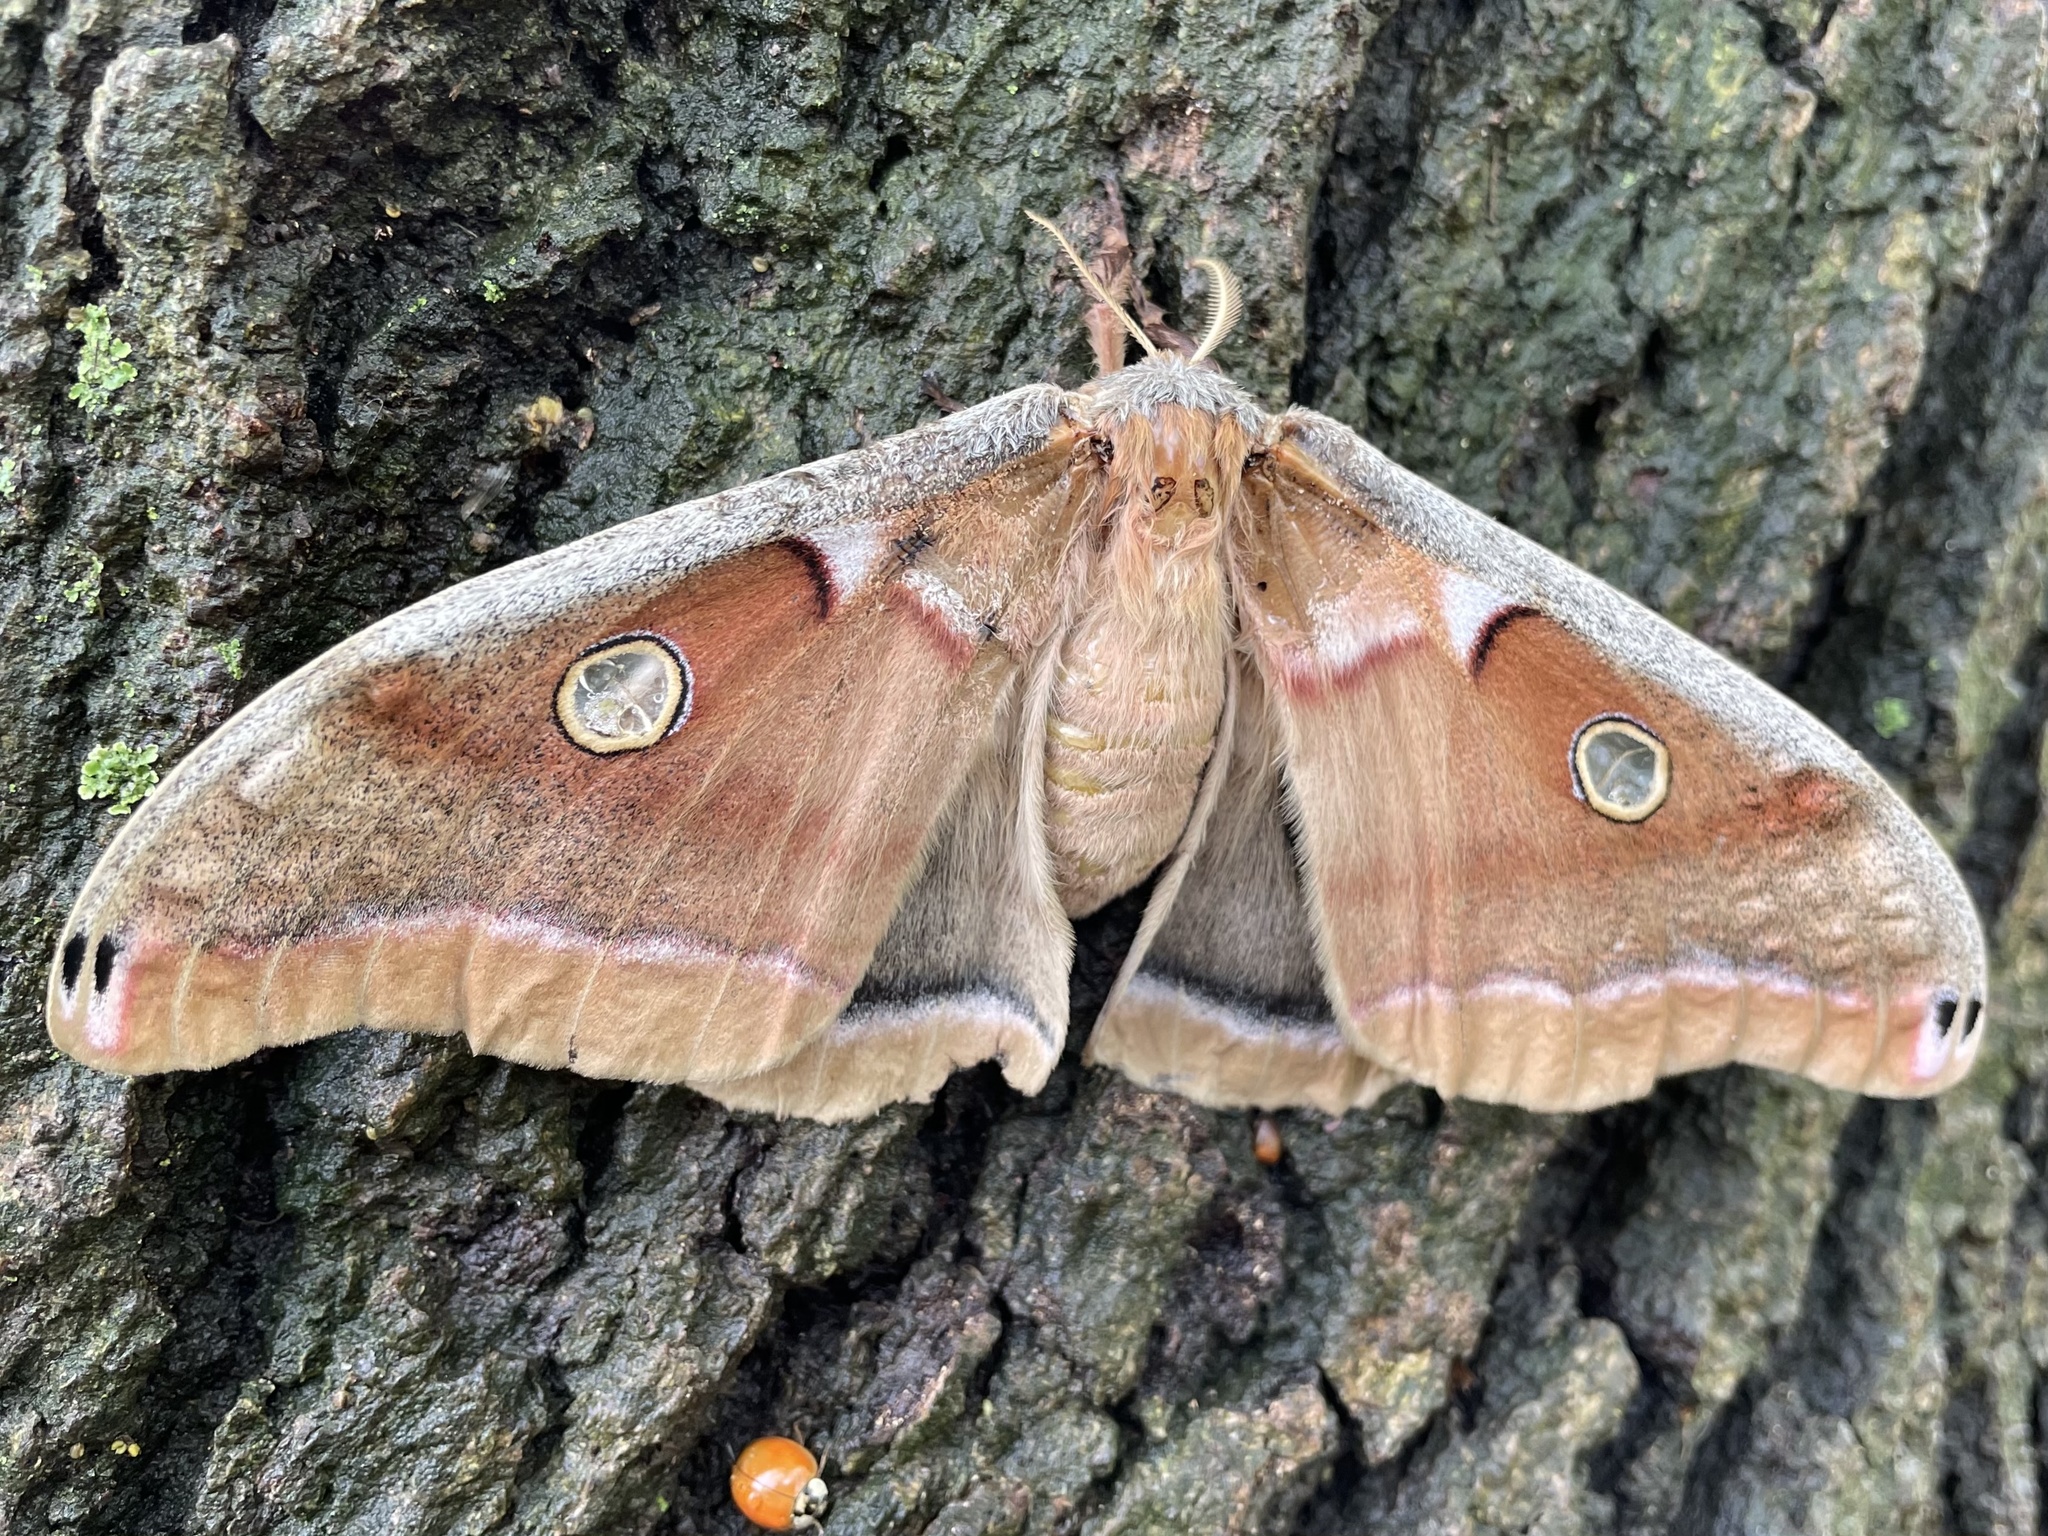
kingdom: Animalia
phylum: Arthropoda
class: Insecta
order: Lepidoptera
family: Saturniidae
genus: Antheraea
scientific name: Antheraea polyphemus
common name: Polyphemus moth
